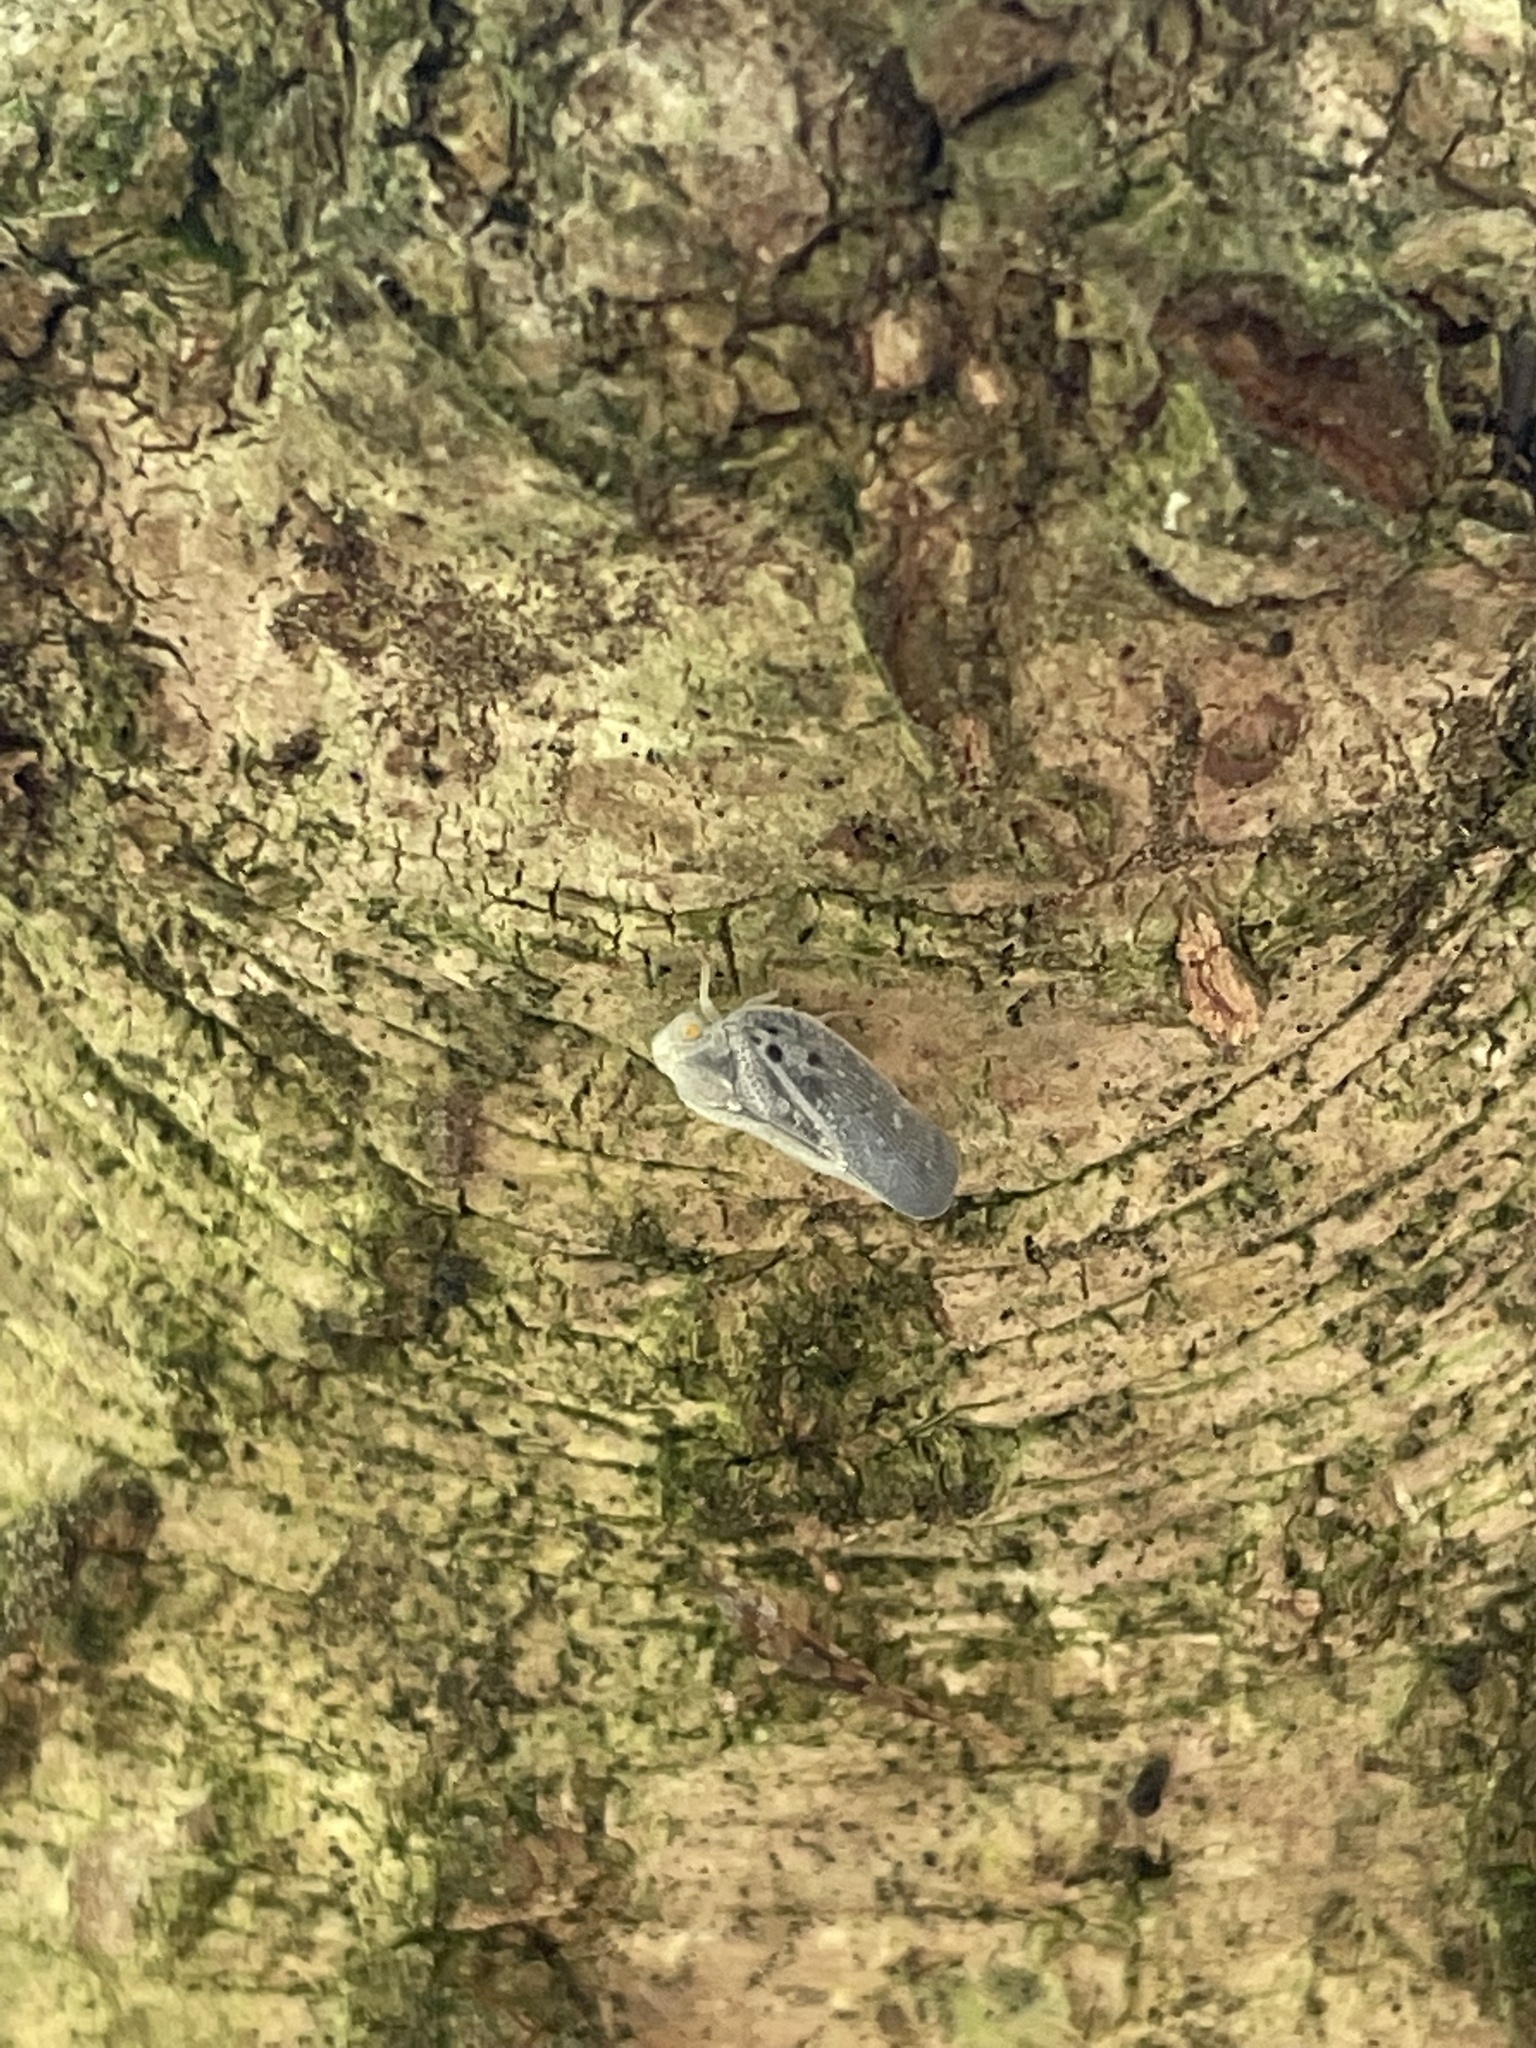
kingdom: Animalia
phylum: Arthropoda
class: Insecta
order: Hemiptera
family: Flatidae
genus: Metcalfa
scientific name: Metcalfa pruinosa
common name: Citrus flatid planthopper
